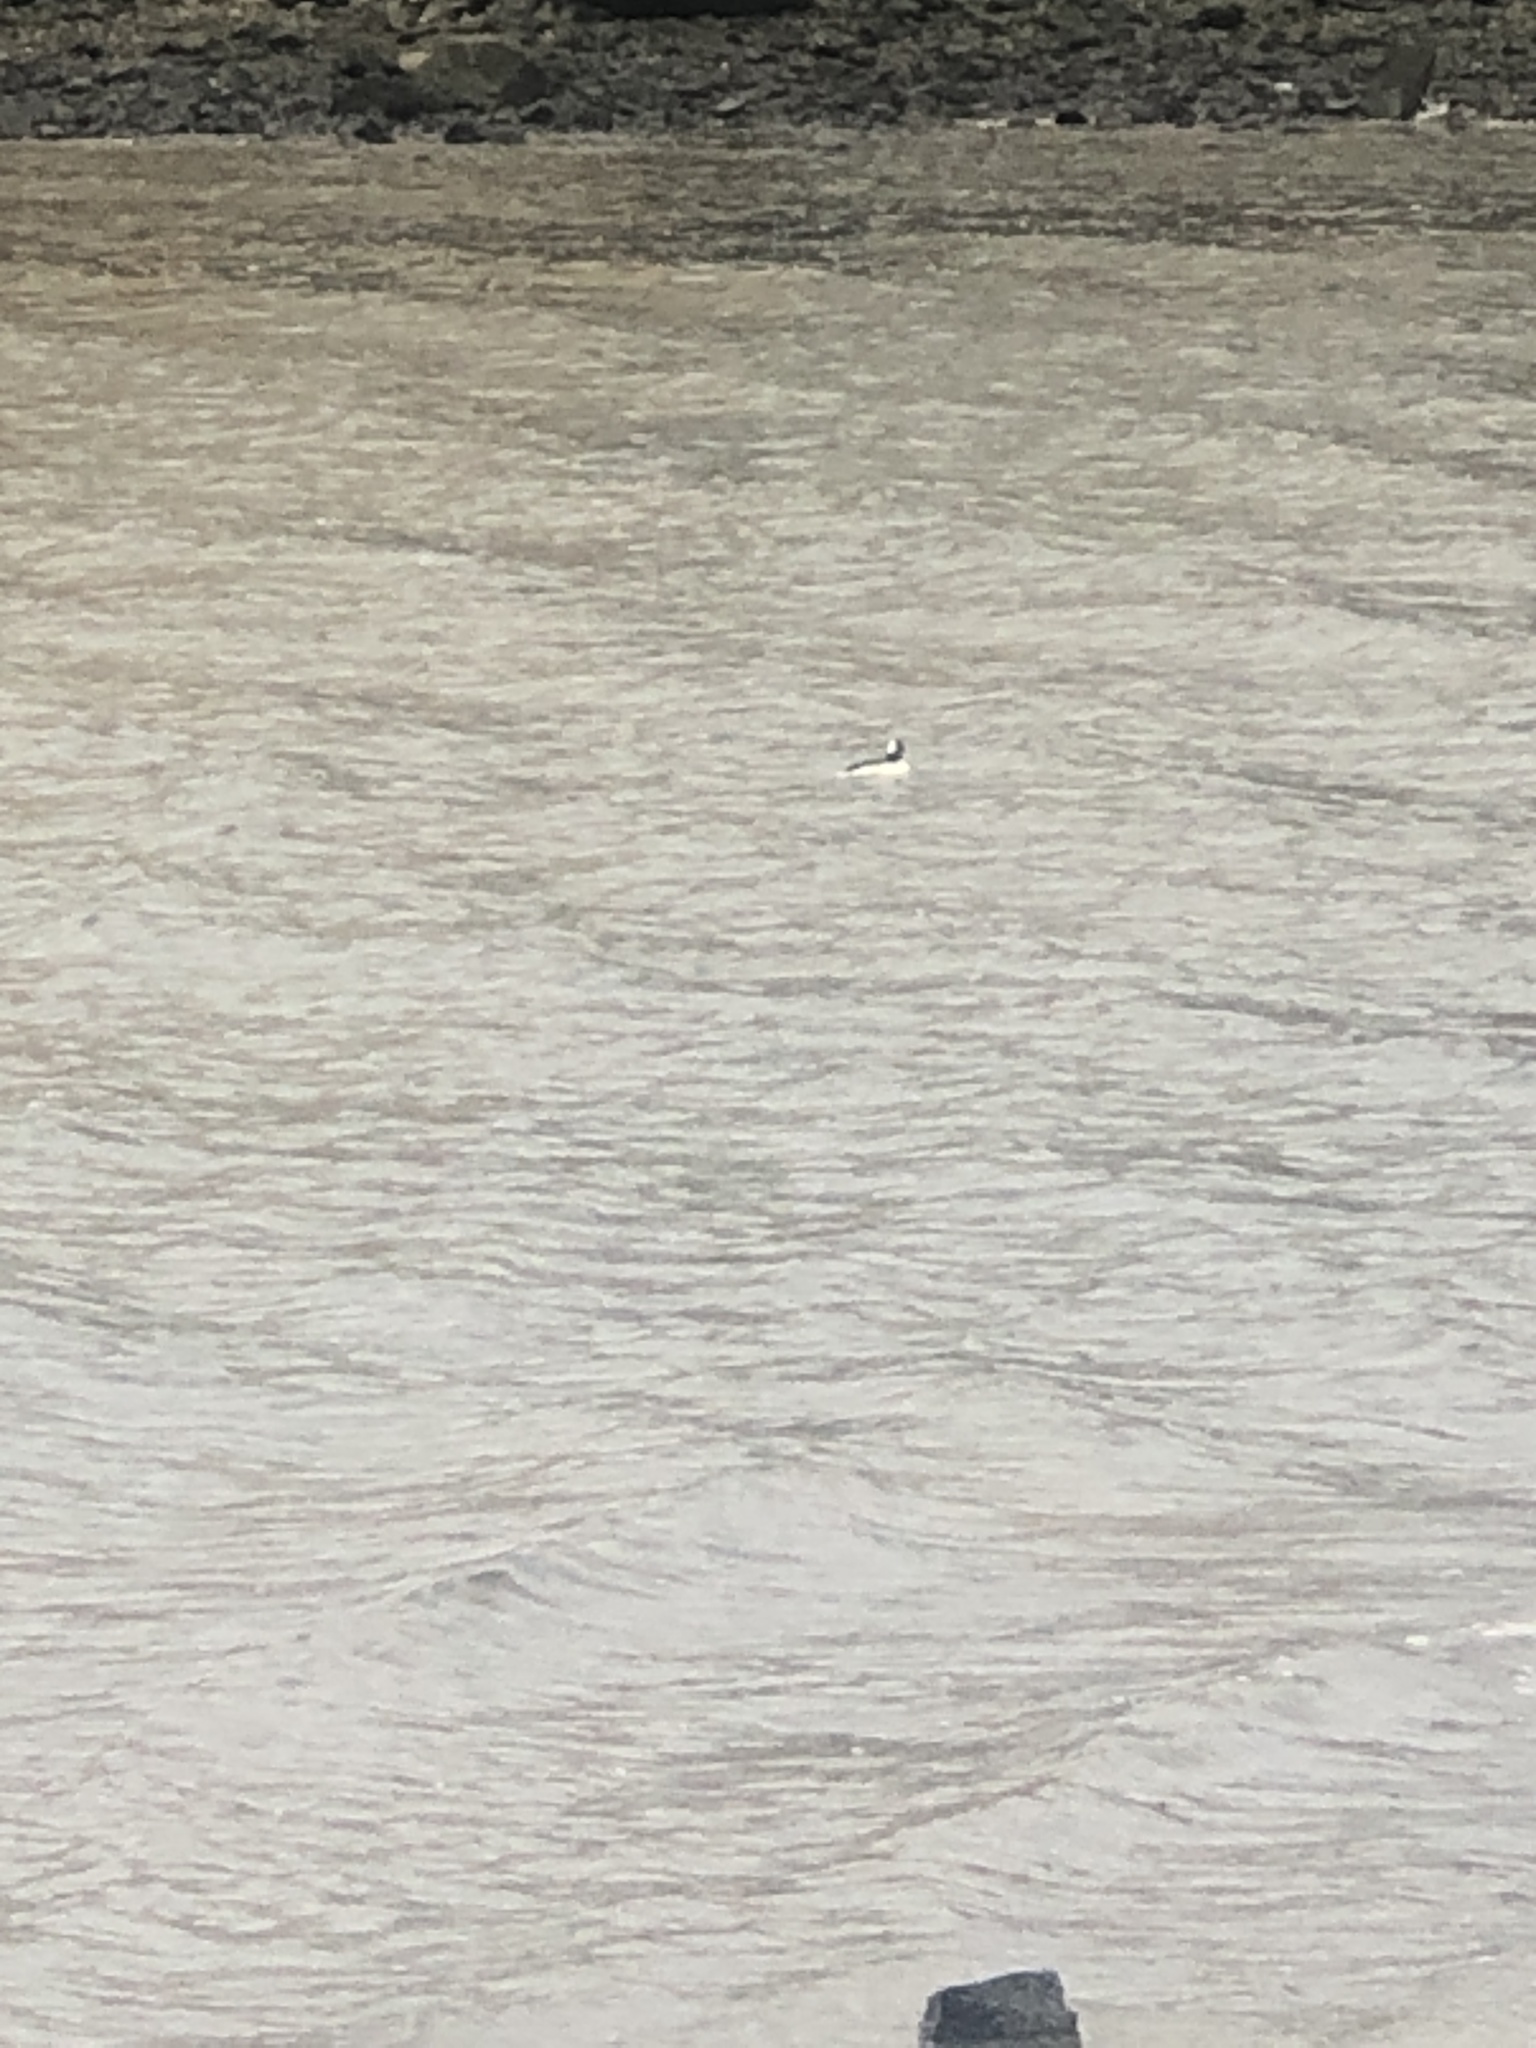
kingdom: Animalia
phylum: Chordata
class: Aves
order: Anseriformes
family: Anatidae
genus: Bucephala
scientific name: Bucephala albeola
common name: Bufflehead
